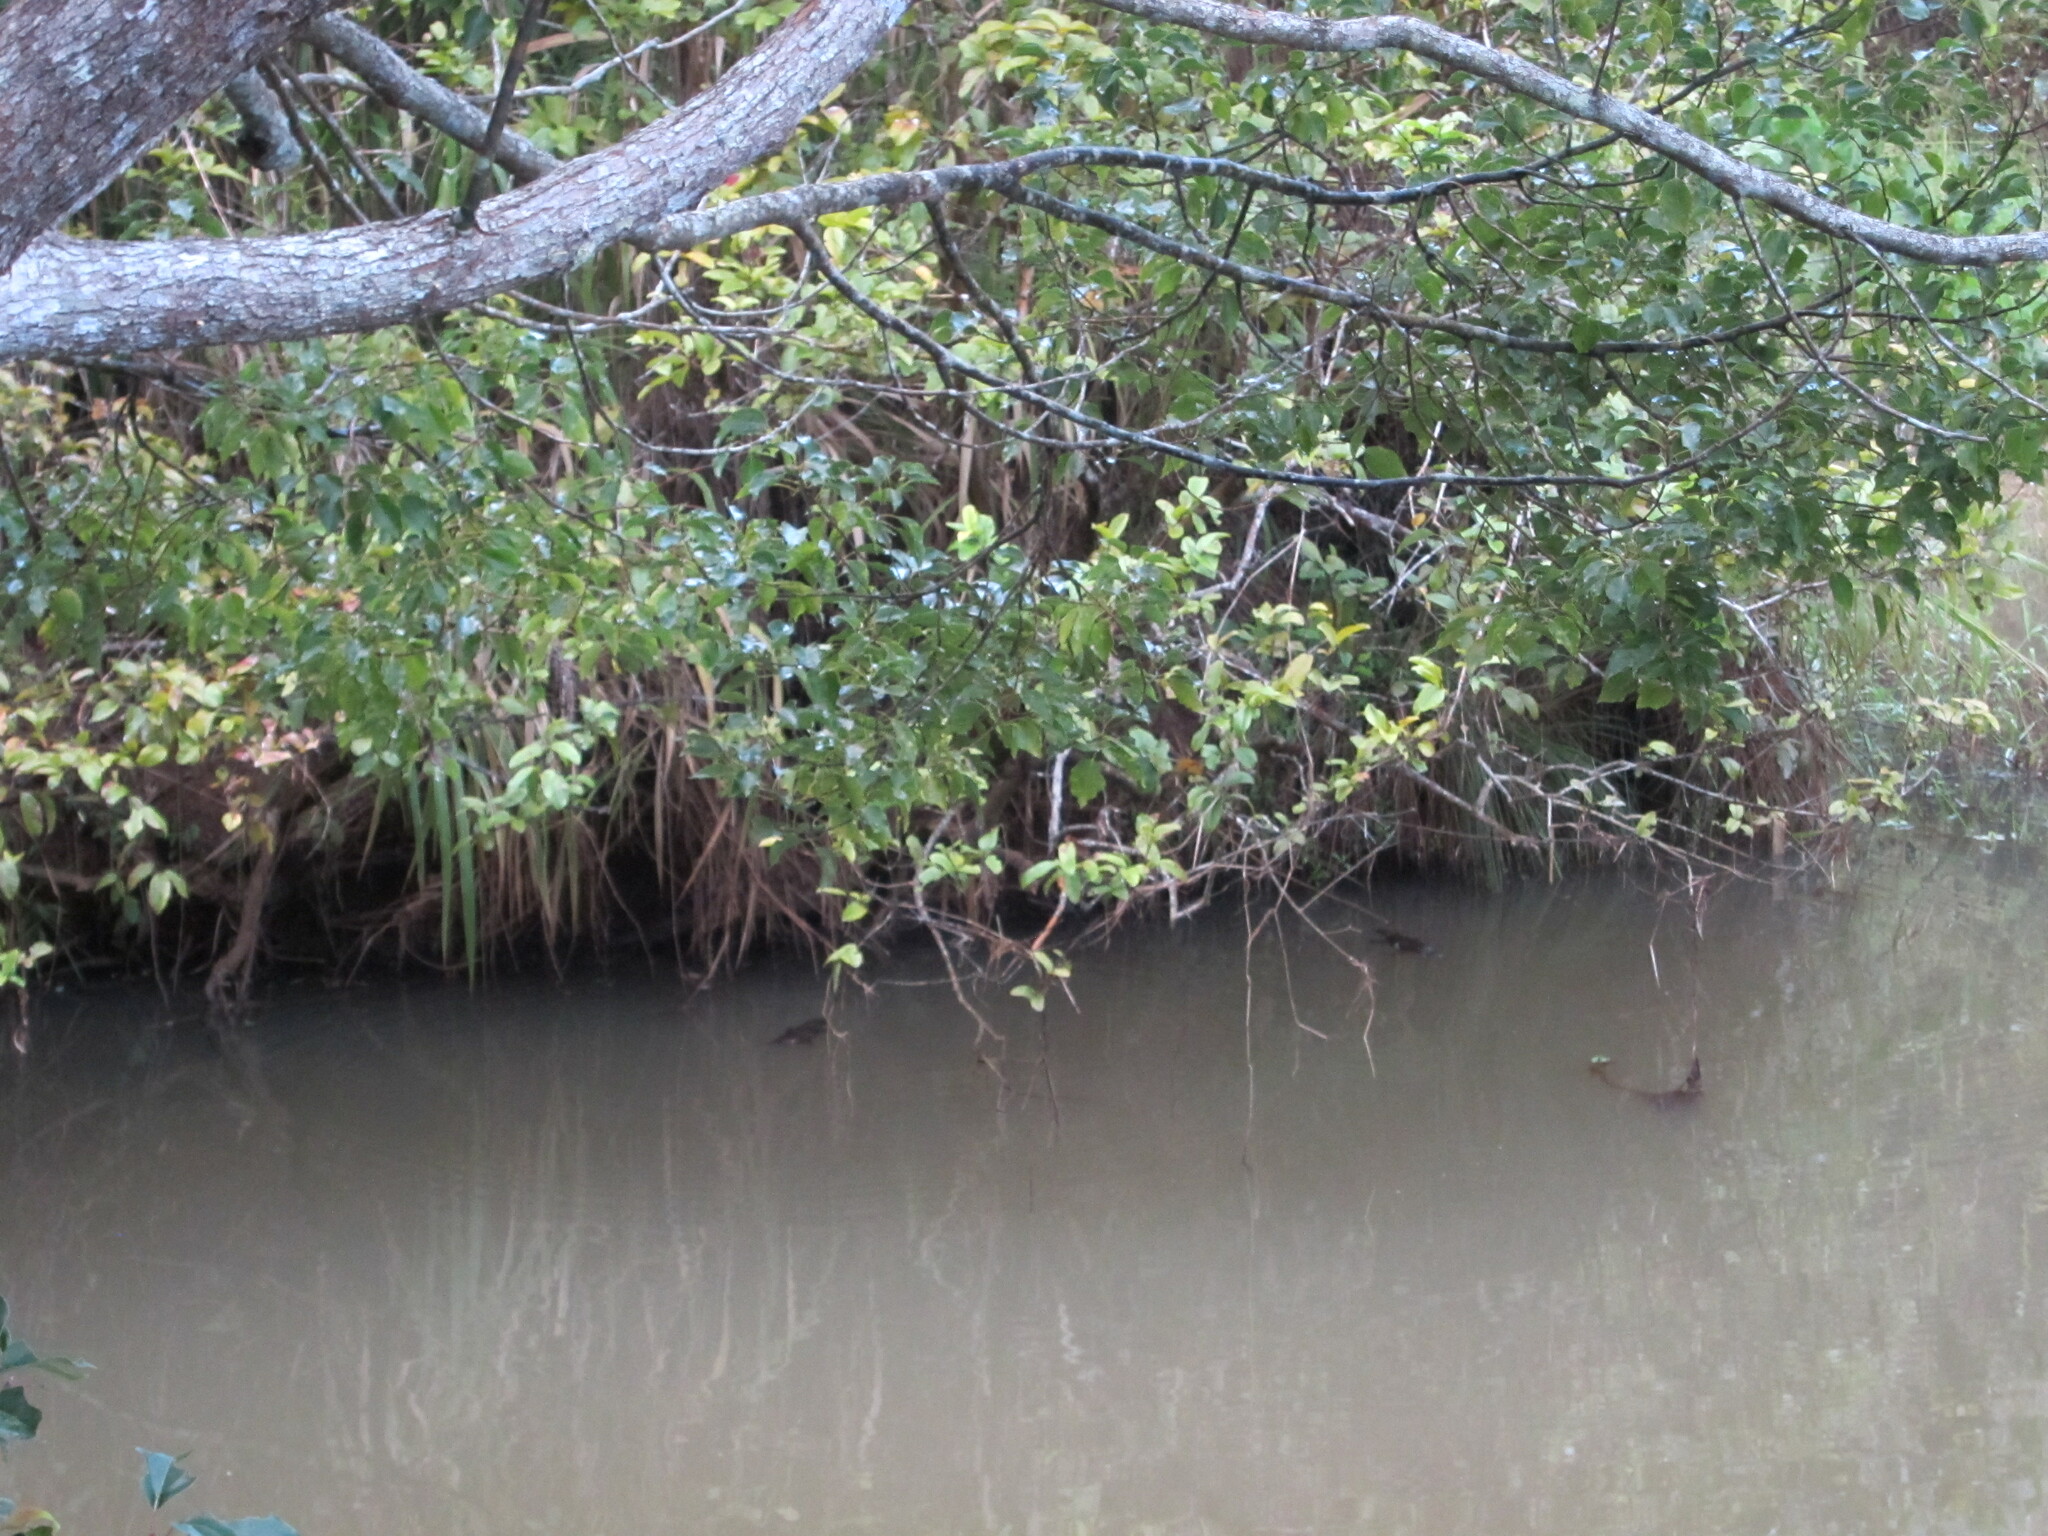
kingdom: Animalia
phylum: Chordata
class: Mammalia
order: Monotremata
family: Ornithorhynchidae
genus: Ornithorhynchus
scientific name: Ornithorhynchus anatinus
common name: Platypus
